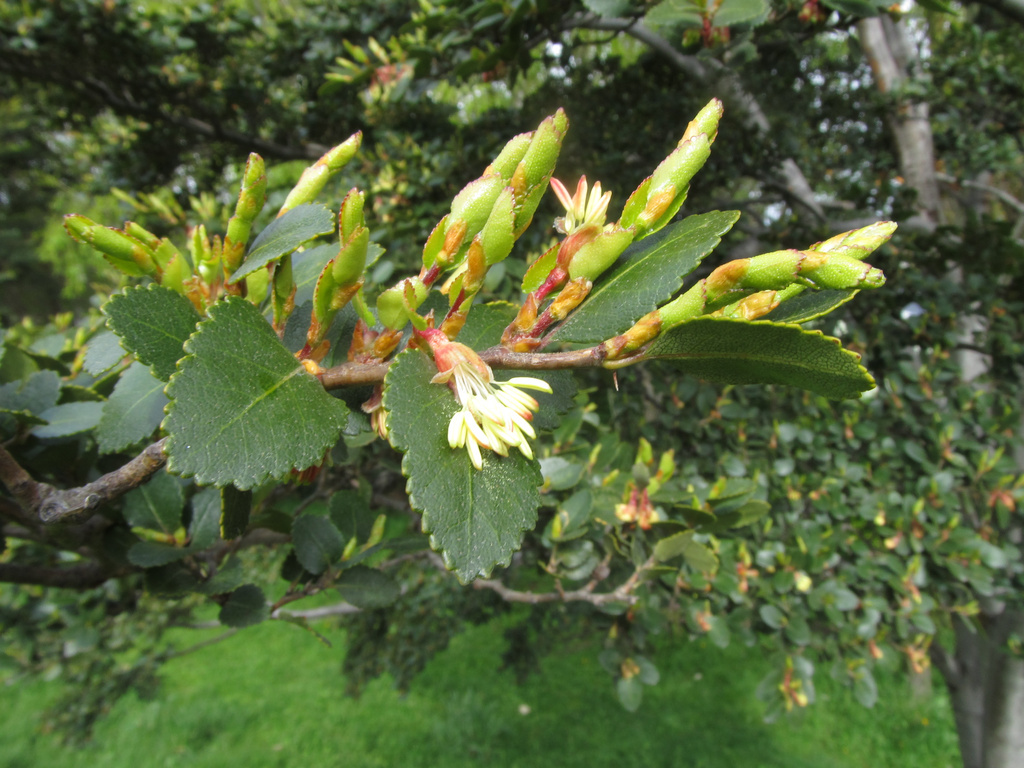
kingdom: Plantae
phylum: Tracheophyta
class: Magnoliopsida
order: Fagales
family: Nothofagaceae
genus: Nothofagus
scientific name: Nothofagus betuloides
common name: Magellan's beech
